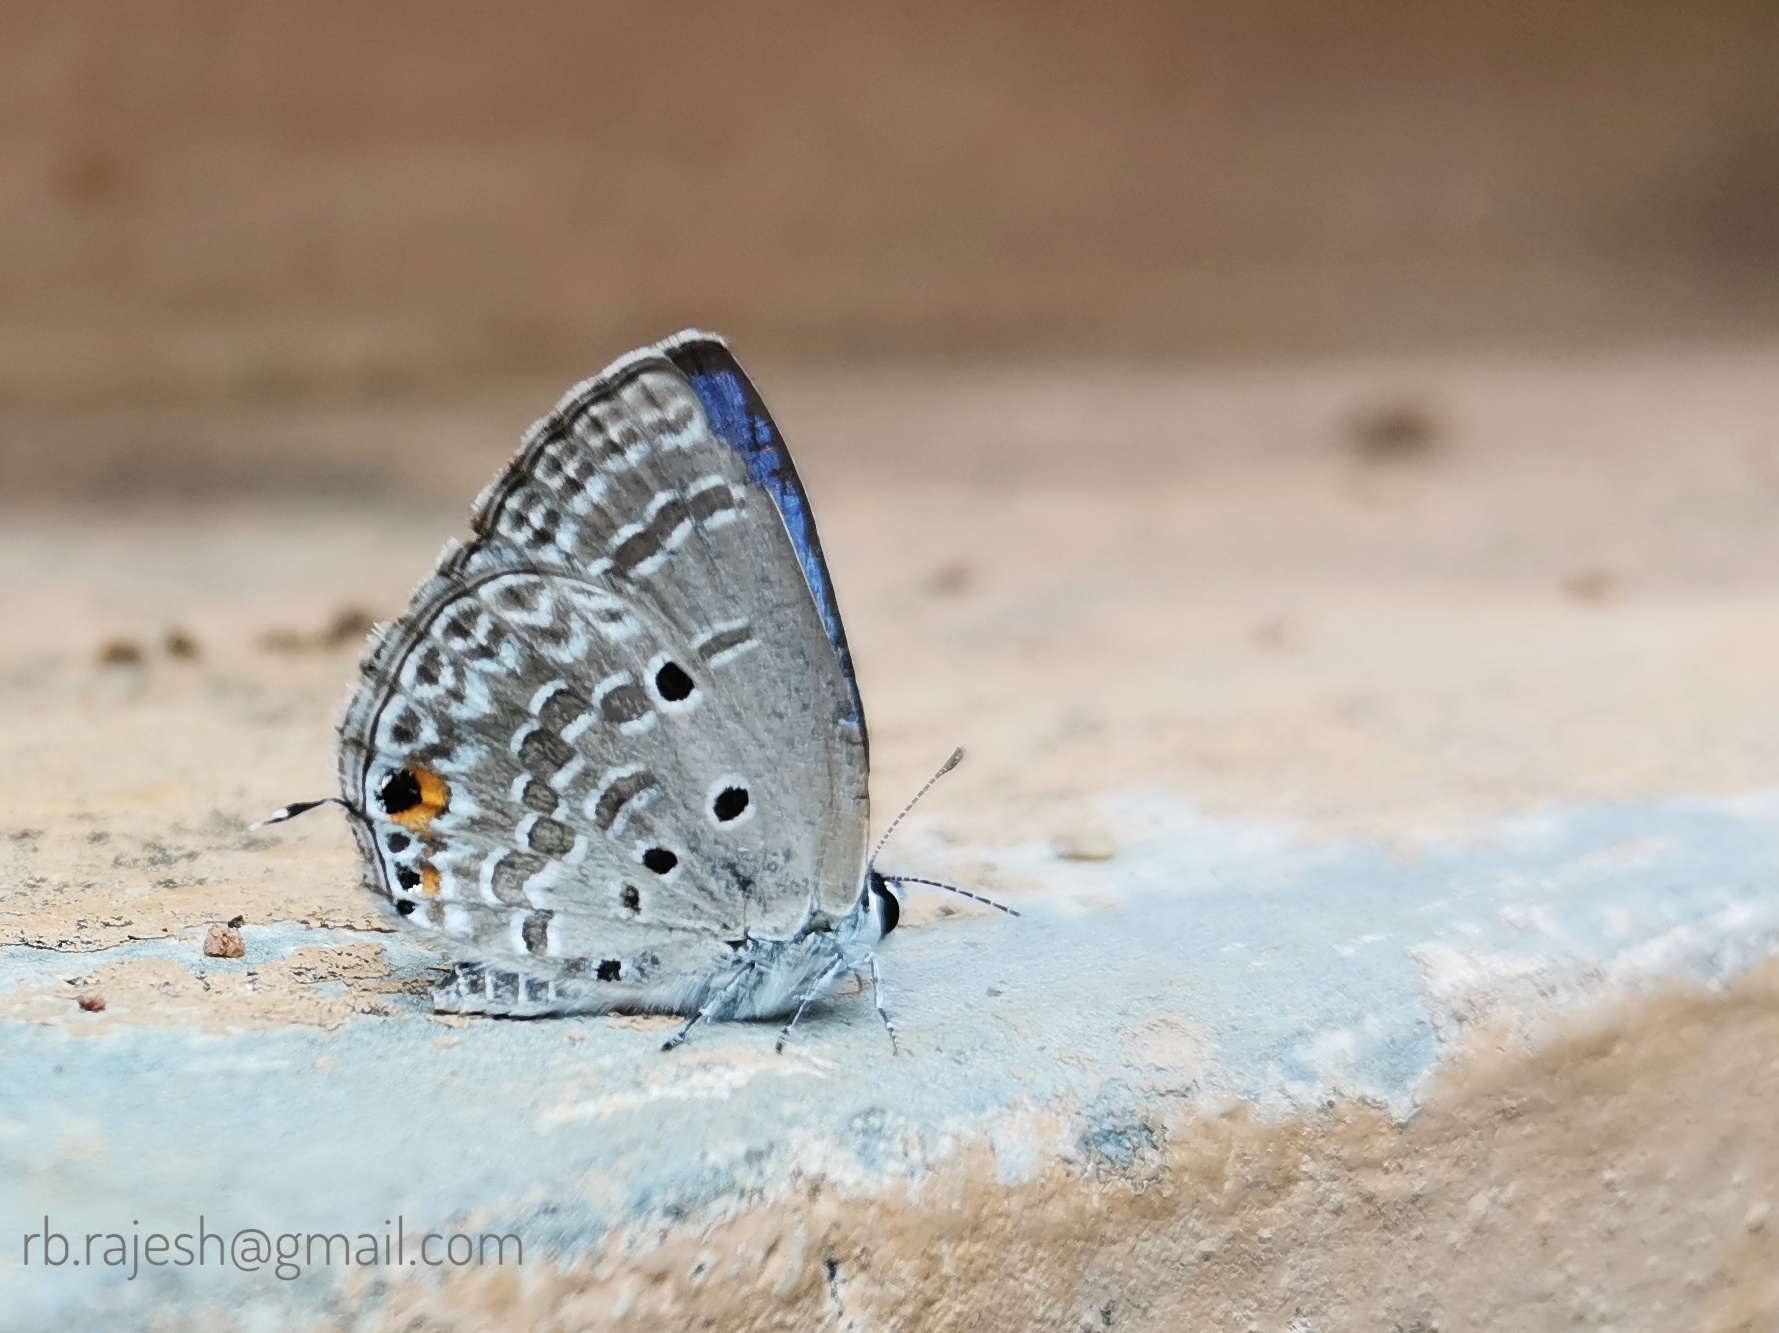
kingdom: Animalia
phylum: Arthropoda
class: Insecta
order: Lepidoptera
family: Lycaenidae
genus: Luthrodes
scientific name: Luthrodes pandava
